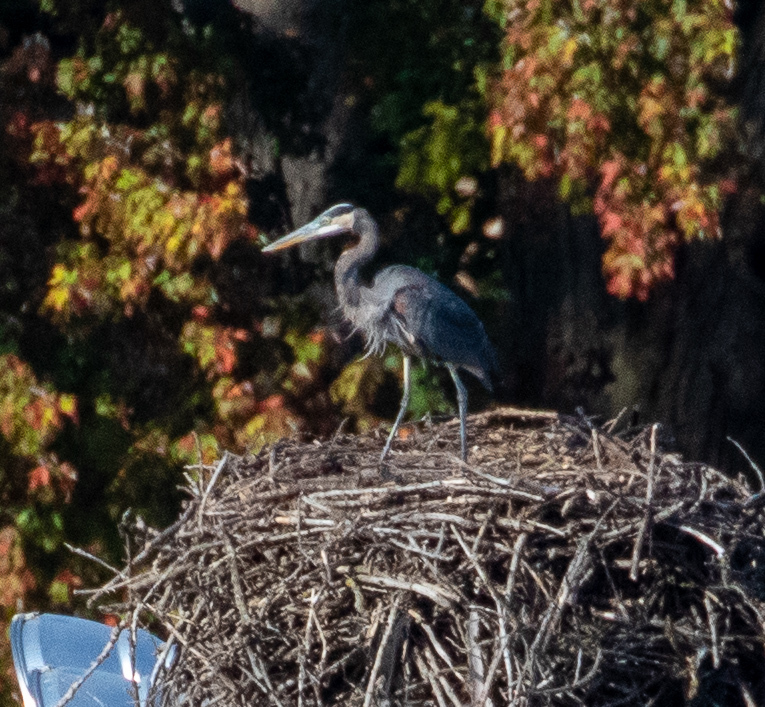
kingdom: Animalia
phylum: Chordata
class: Aves
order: Pelecaniformes
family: Ardeidae
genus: Ardea
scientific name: Ardea herodias
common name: Great blue heron
